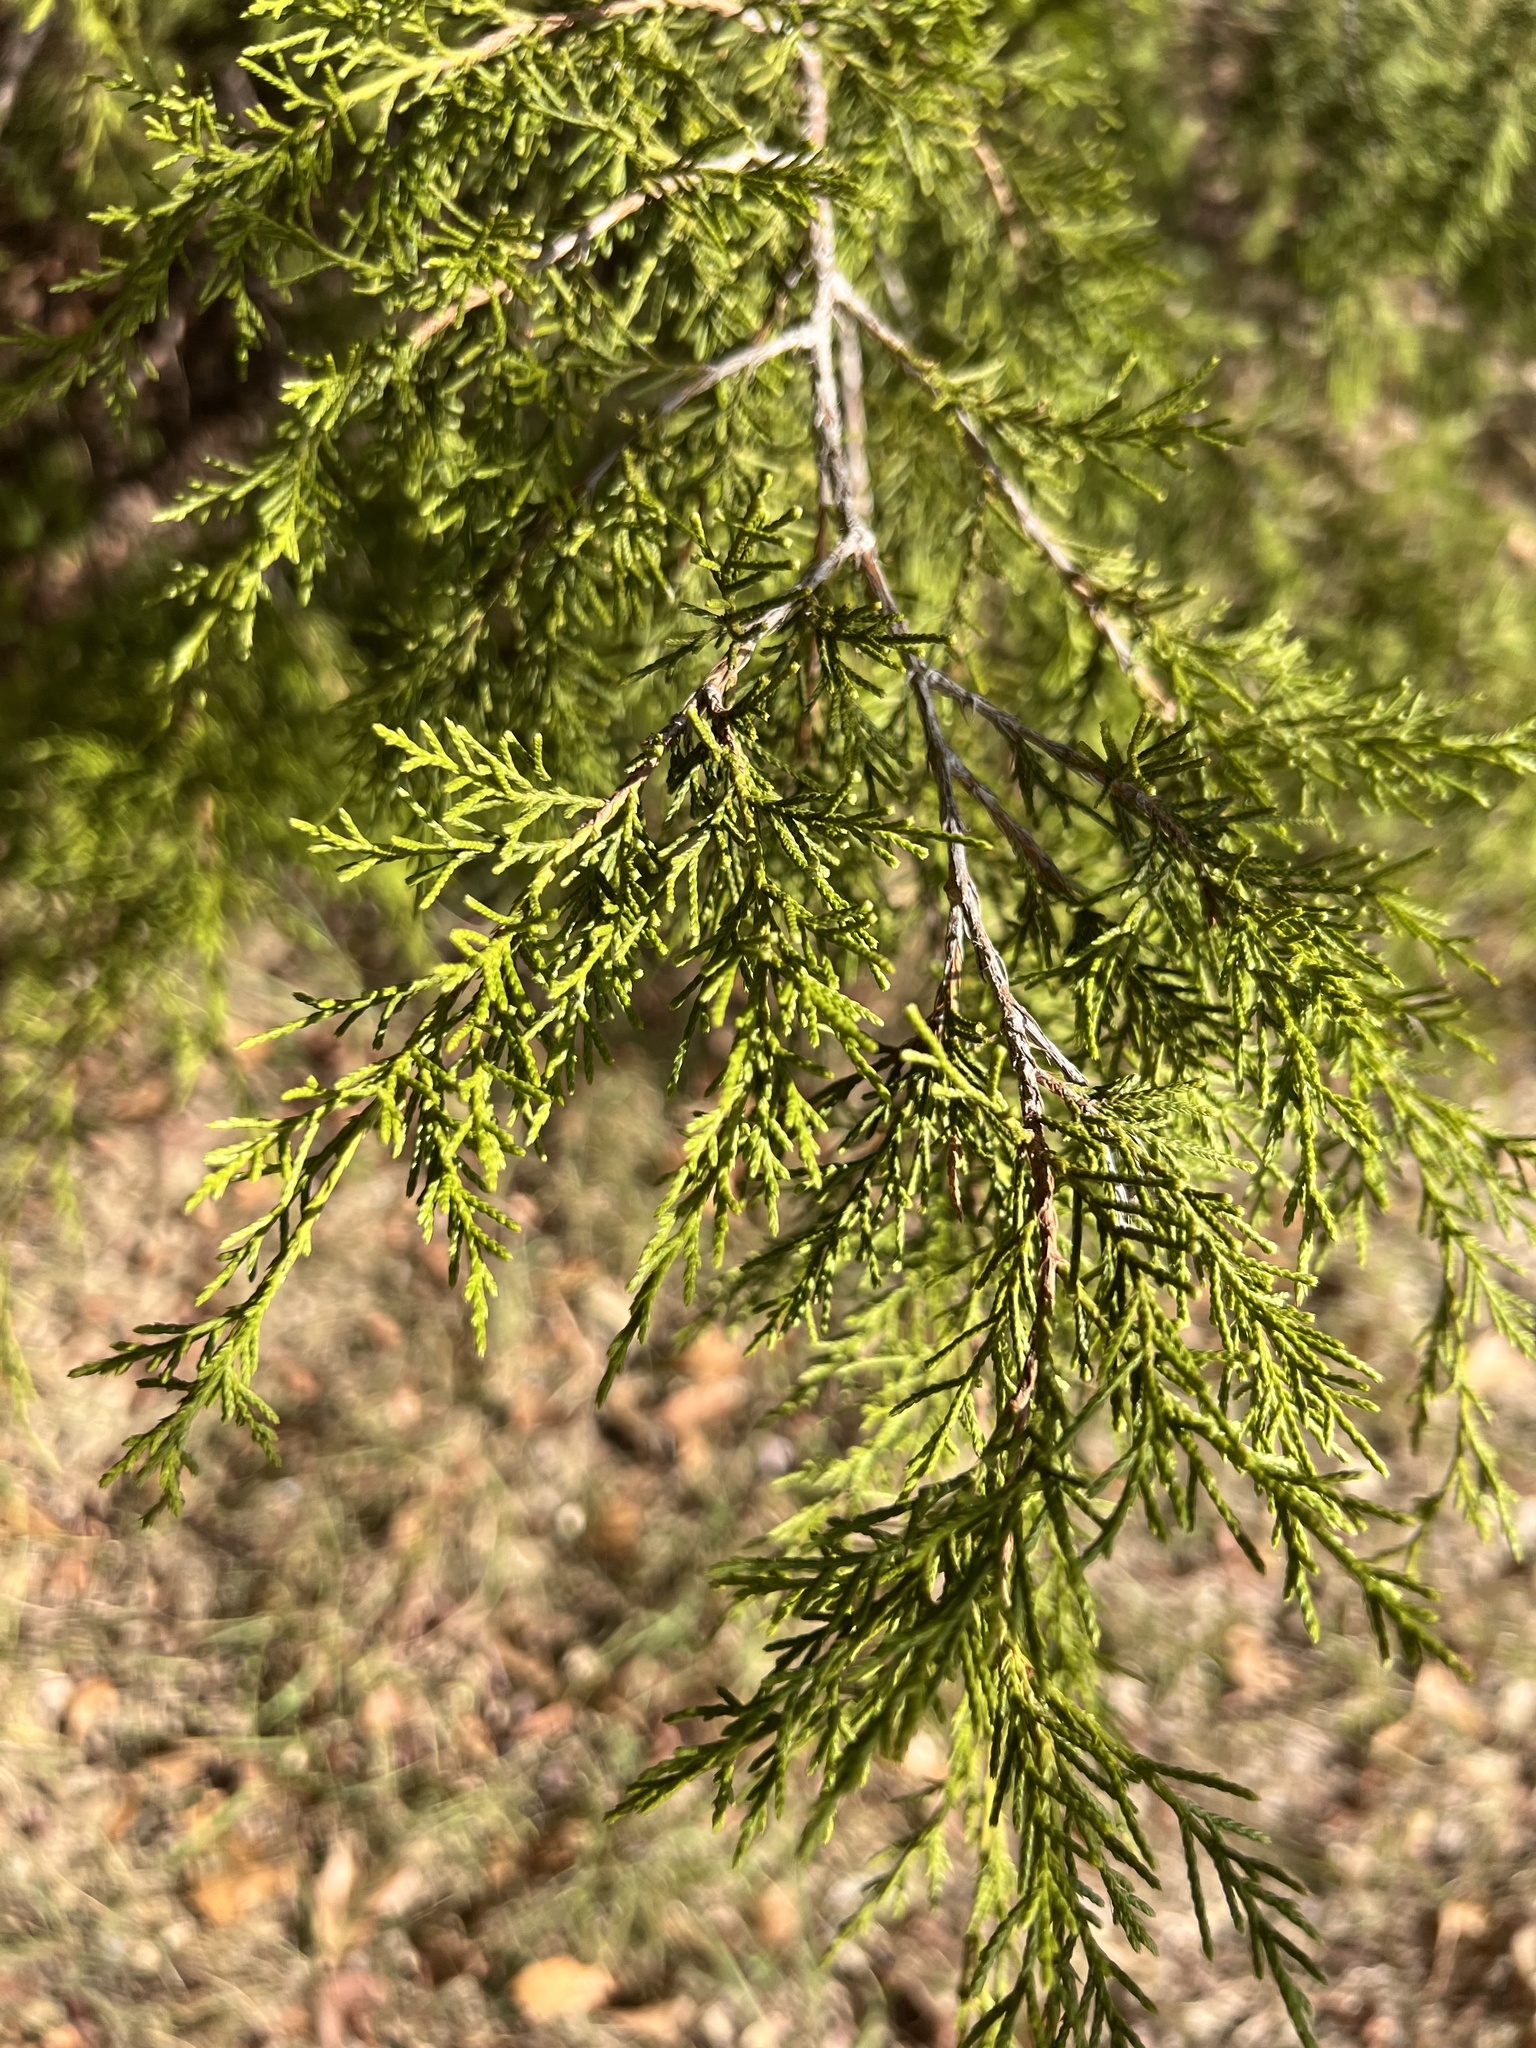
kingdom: Plantae
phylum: Tracheophyta
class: Pinopsida
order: Pinales
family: Cupressaceae
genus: Juniperus
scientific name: Juniperus virginiana
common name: Red juniper
